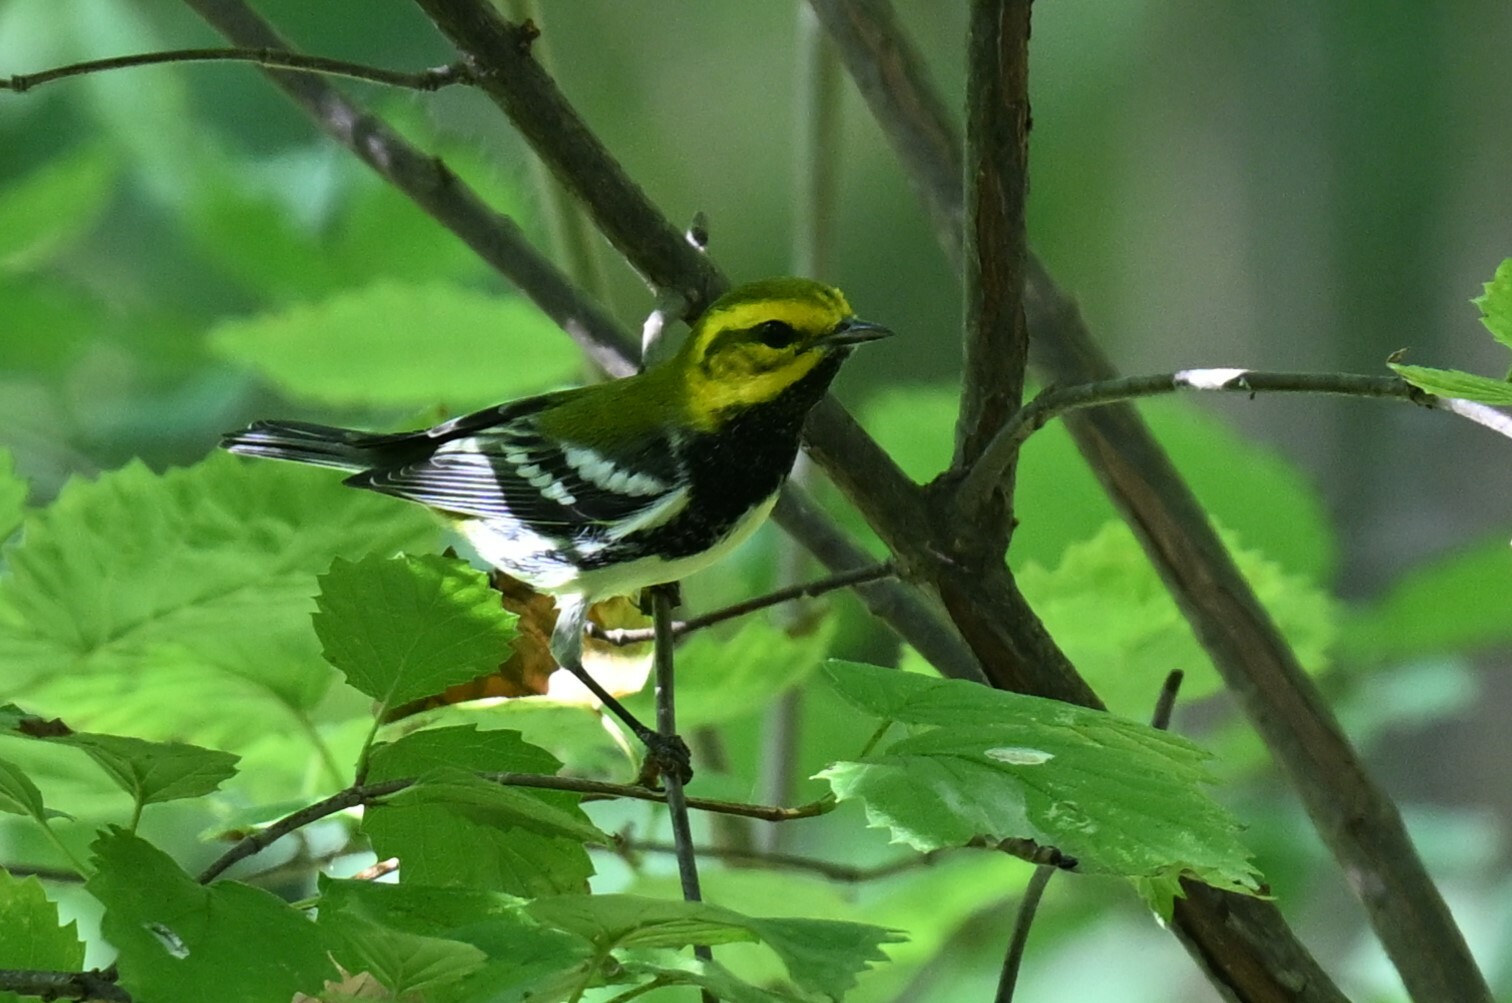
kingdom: Animalia
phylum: Chordata
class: Aves
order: Passeriformes
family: Parulidae
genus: Setophaga
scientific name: Setophaga virens
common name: Black-throated green warbler
